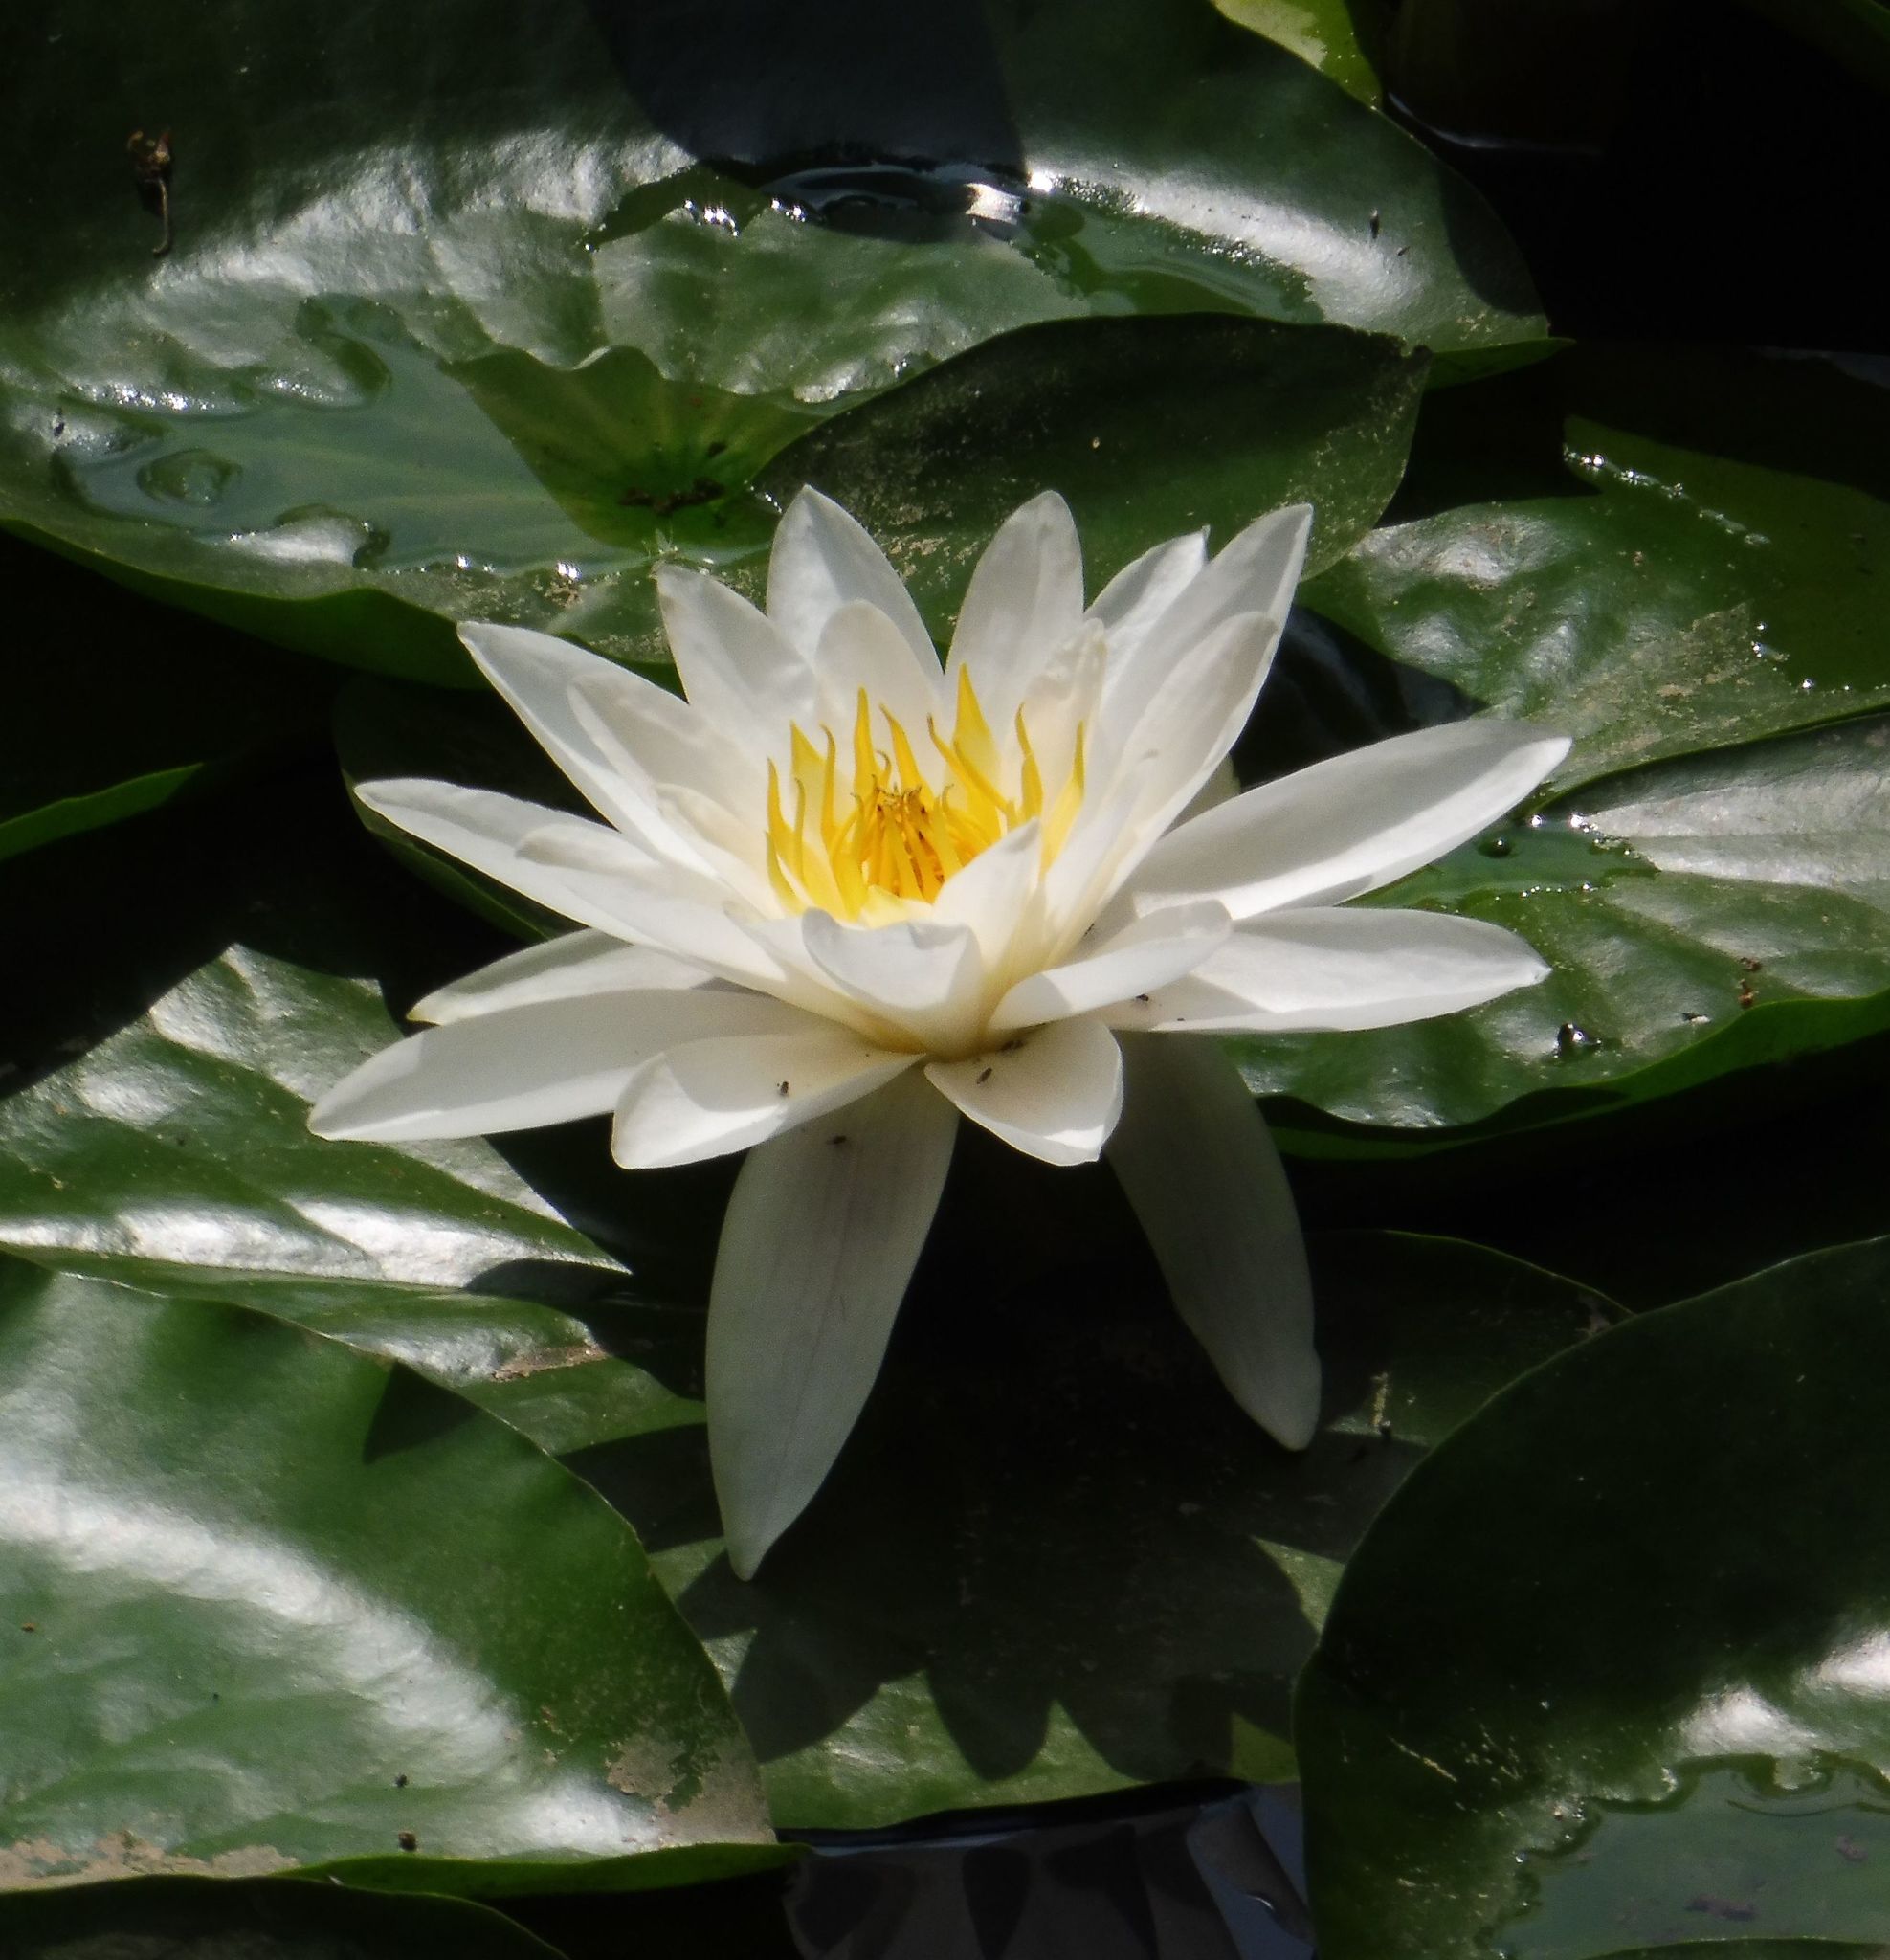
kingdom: Plantae
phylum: Tracheophyta
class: Magnoliopsida
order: Nymphaeales
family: Nymphaeaceae
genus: Nymphaea
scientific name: Nymphaea alba
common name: White water-lily
